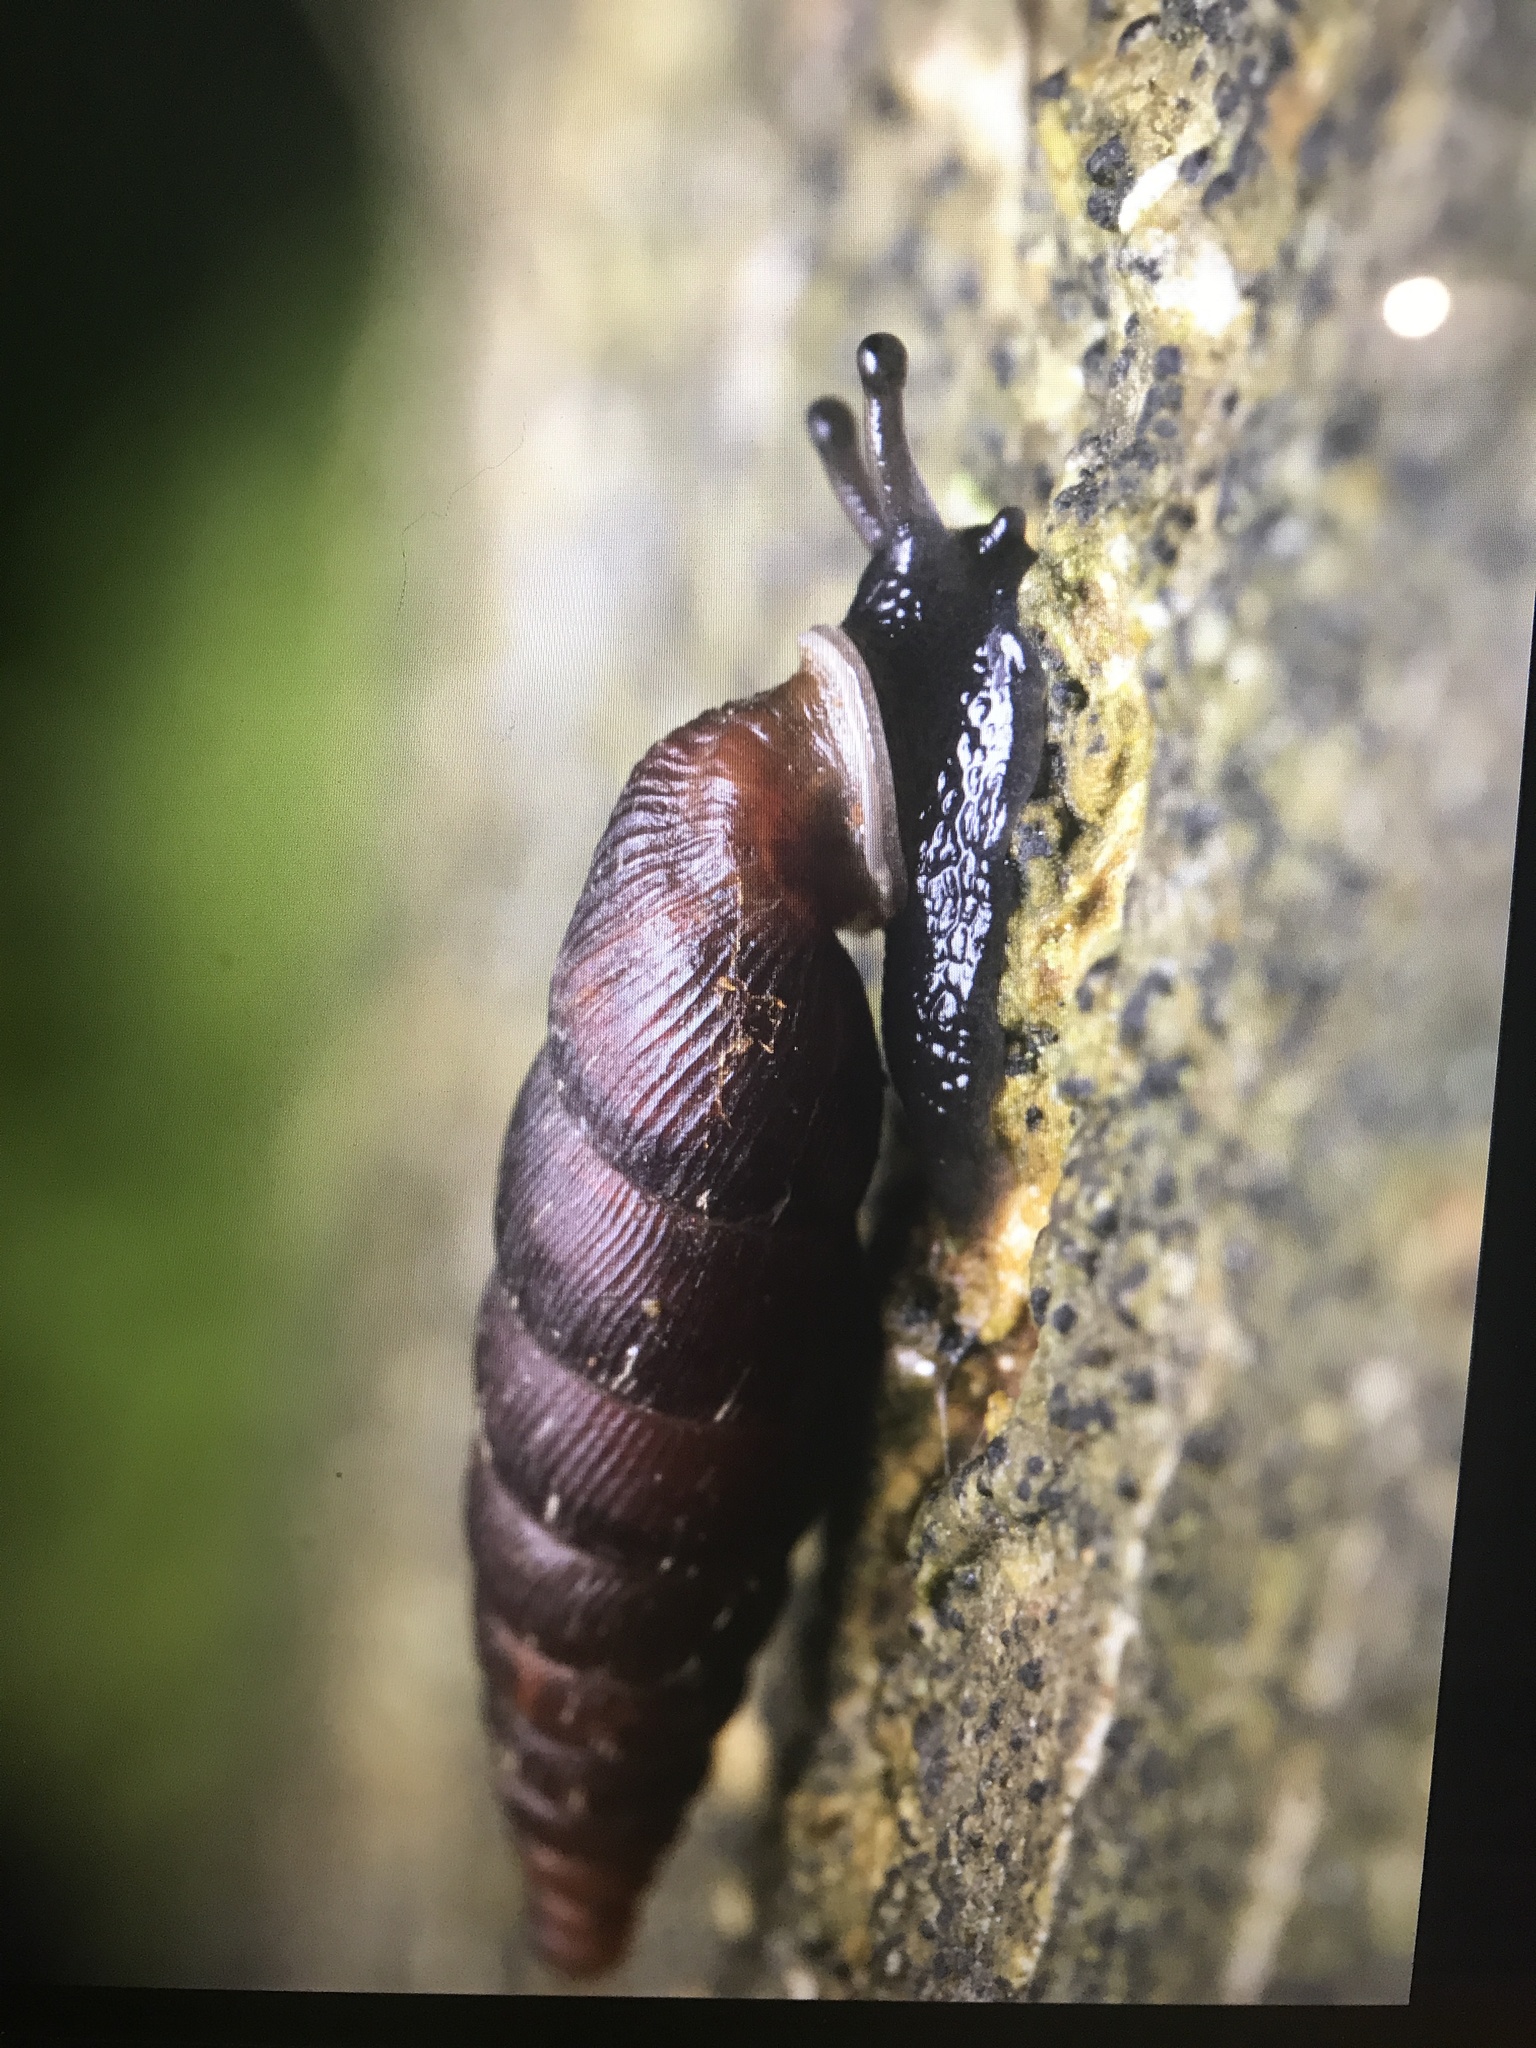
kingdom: Animalia
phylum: Mollusca
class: Gastropoda
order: Stylommatophora
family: Clausiliidae
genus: Clausilia
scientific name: Clausilia bidentata
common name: Two-toothed door snail
